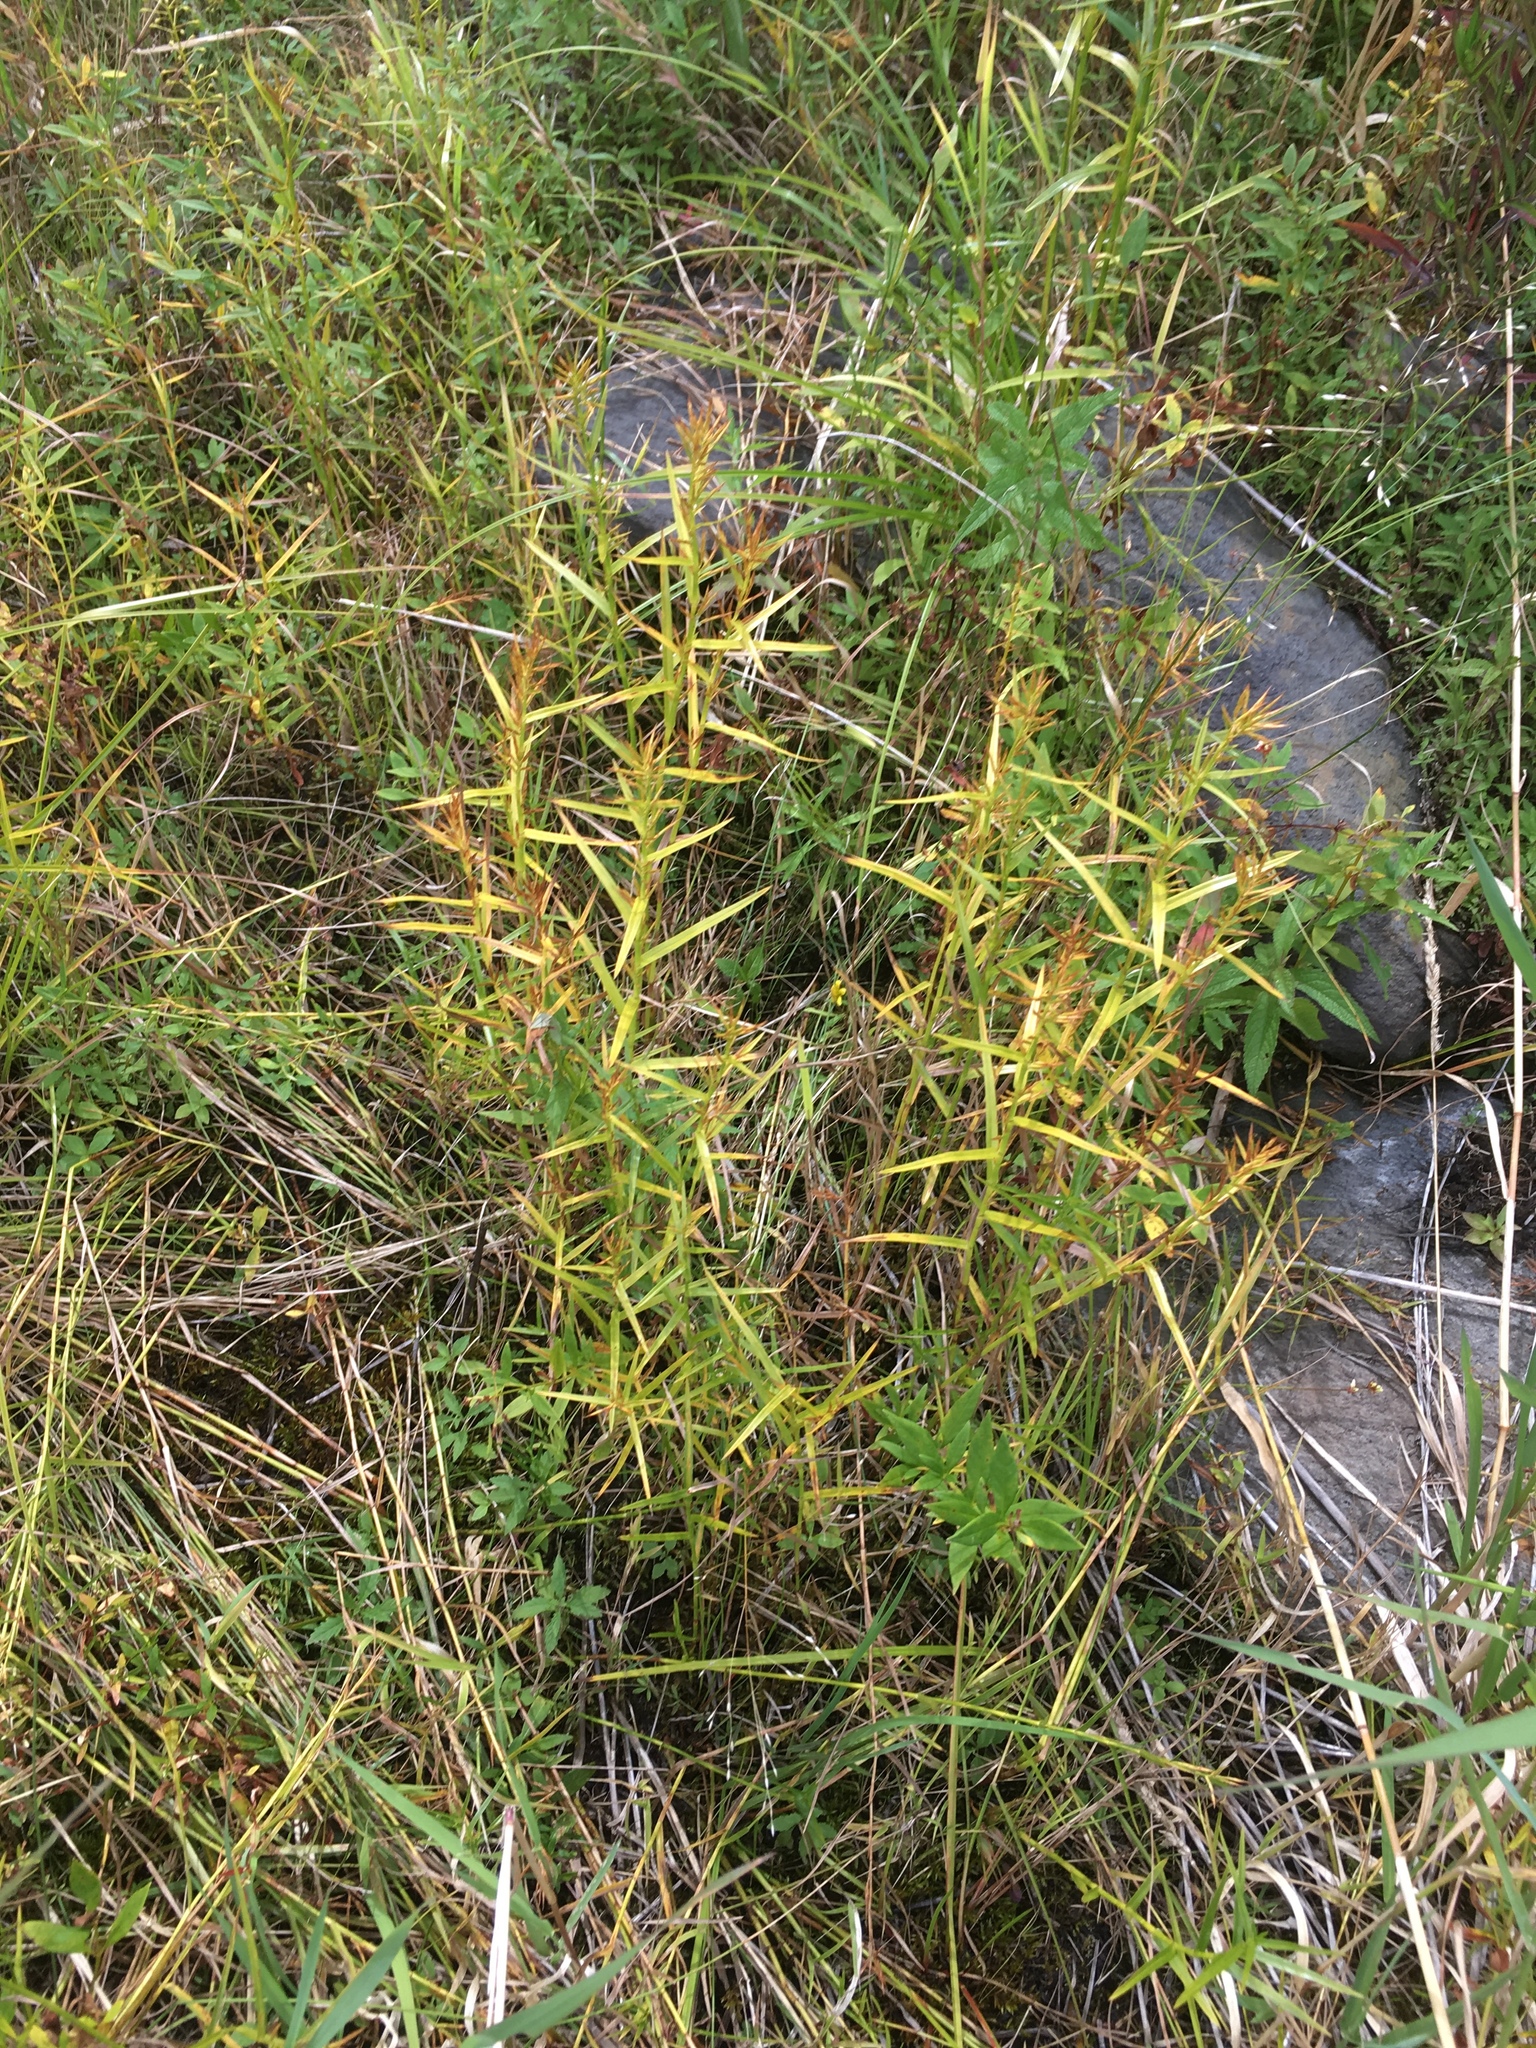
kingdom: Plantae
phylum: Tracheophyta
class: Liliopsida
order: Poales
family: Cyperaceae
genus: Dulichium
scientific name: Dulichium arundinaceum
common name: Three-way sedge
